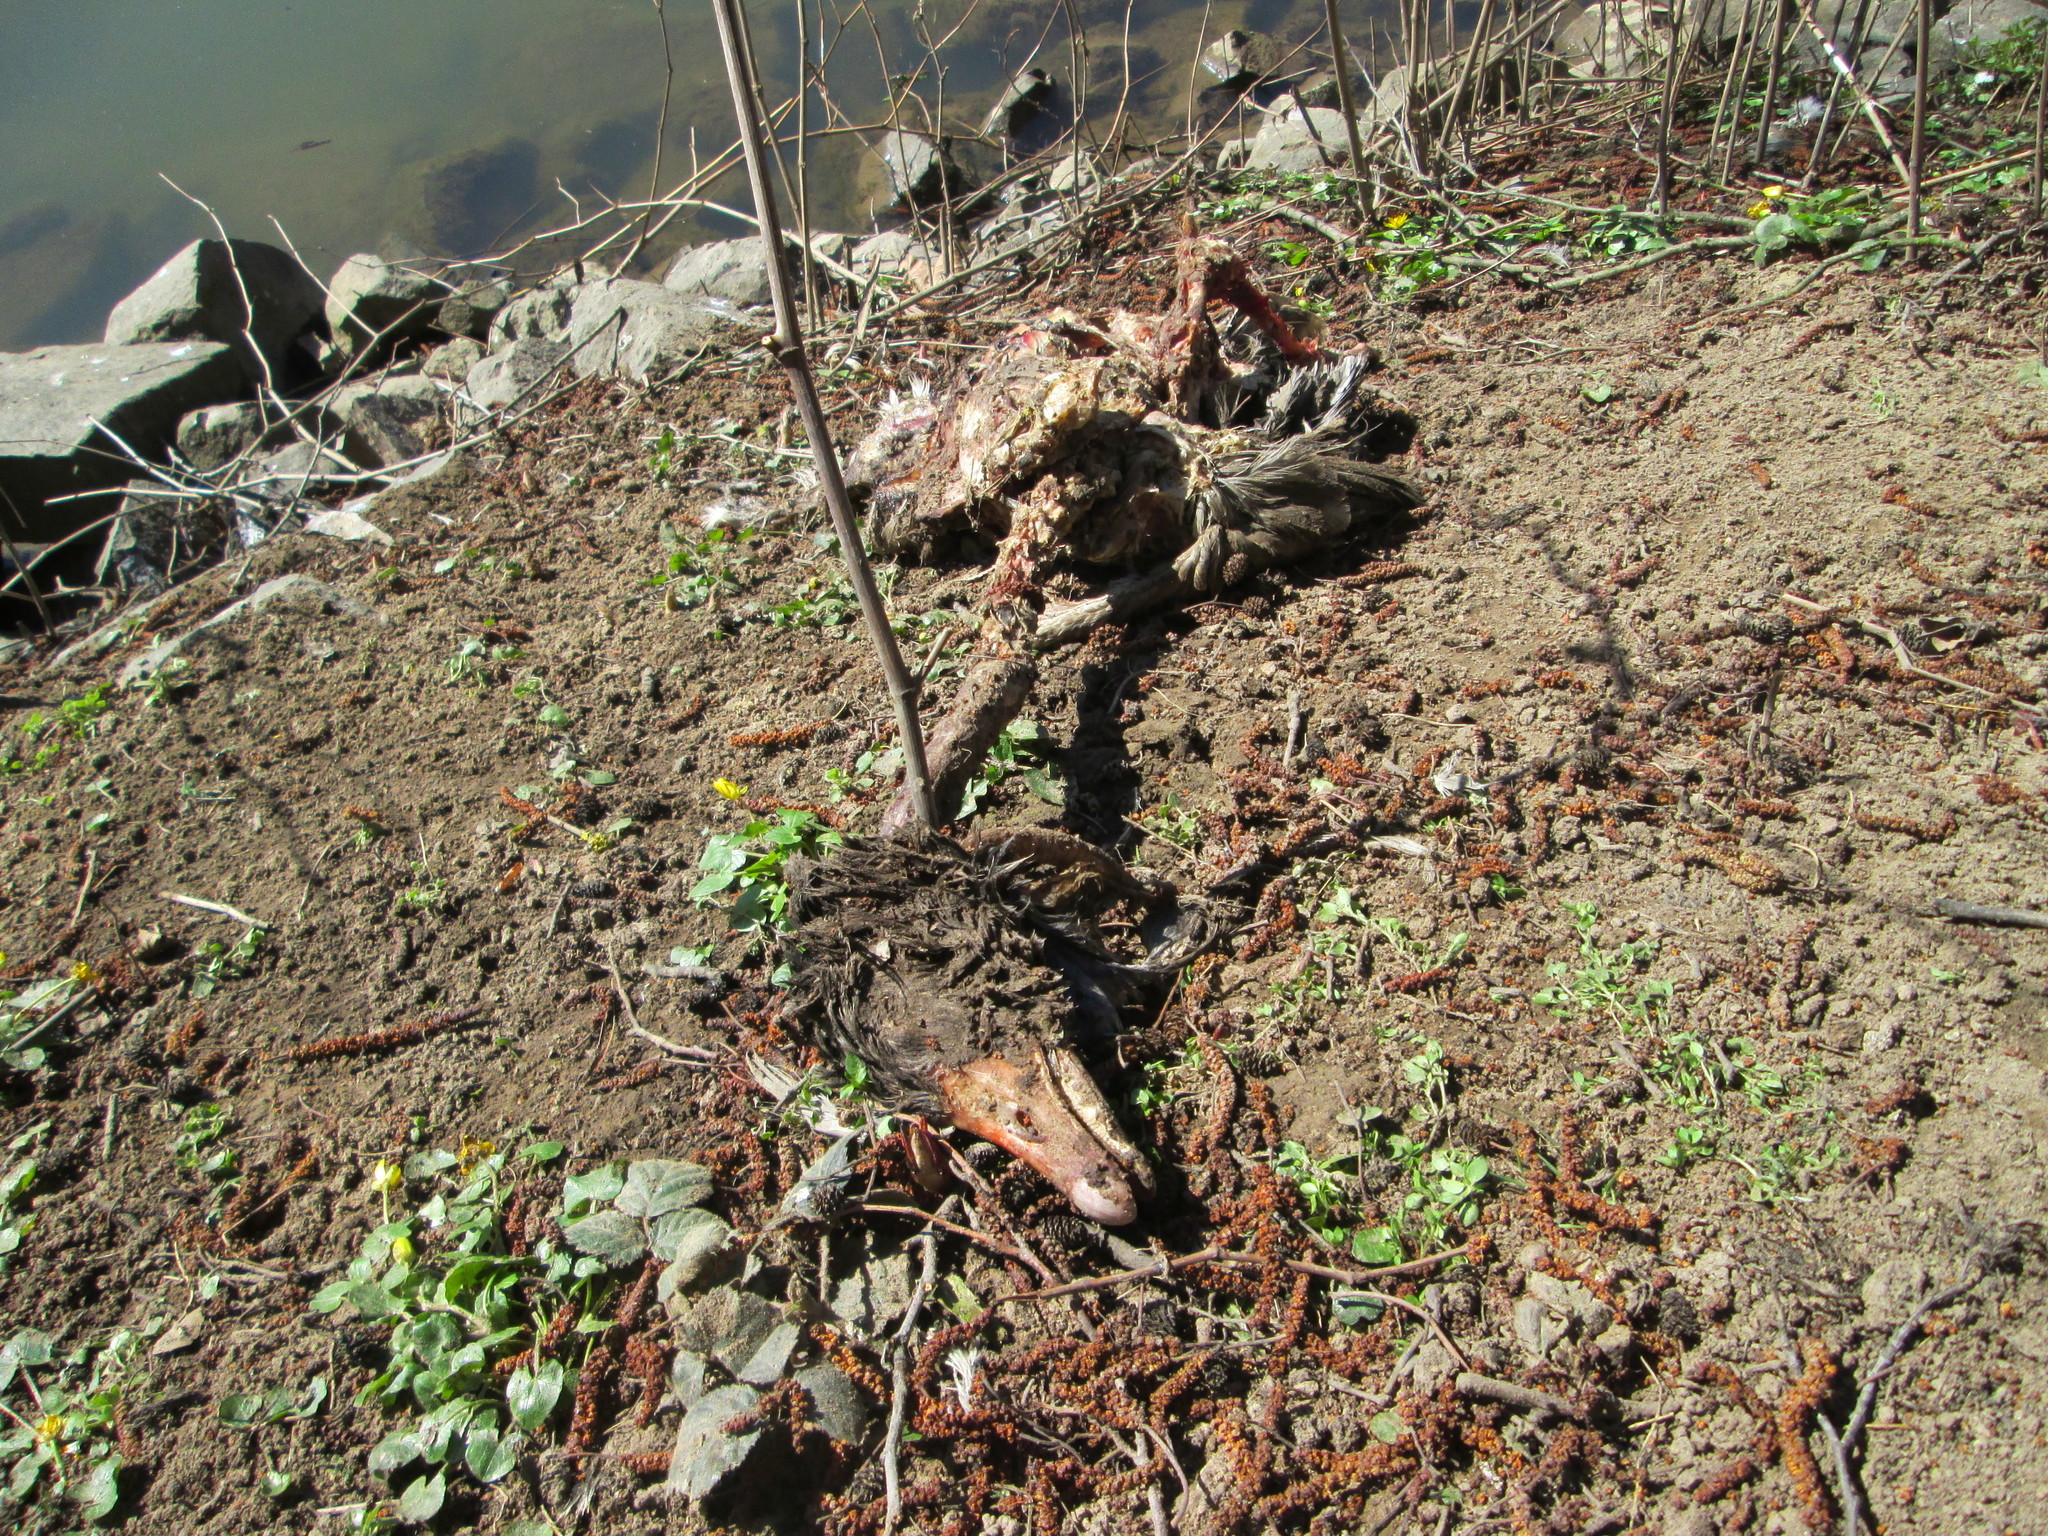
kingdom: Animalia
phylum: Chordata
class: Aves
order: Anseriformes
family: Anatidae
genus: Anser
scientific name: Anser anser
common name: Greylag goose
